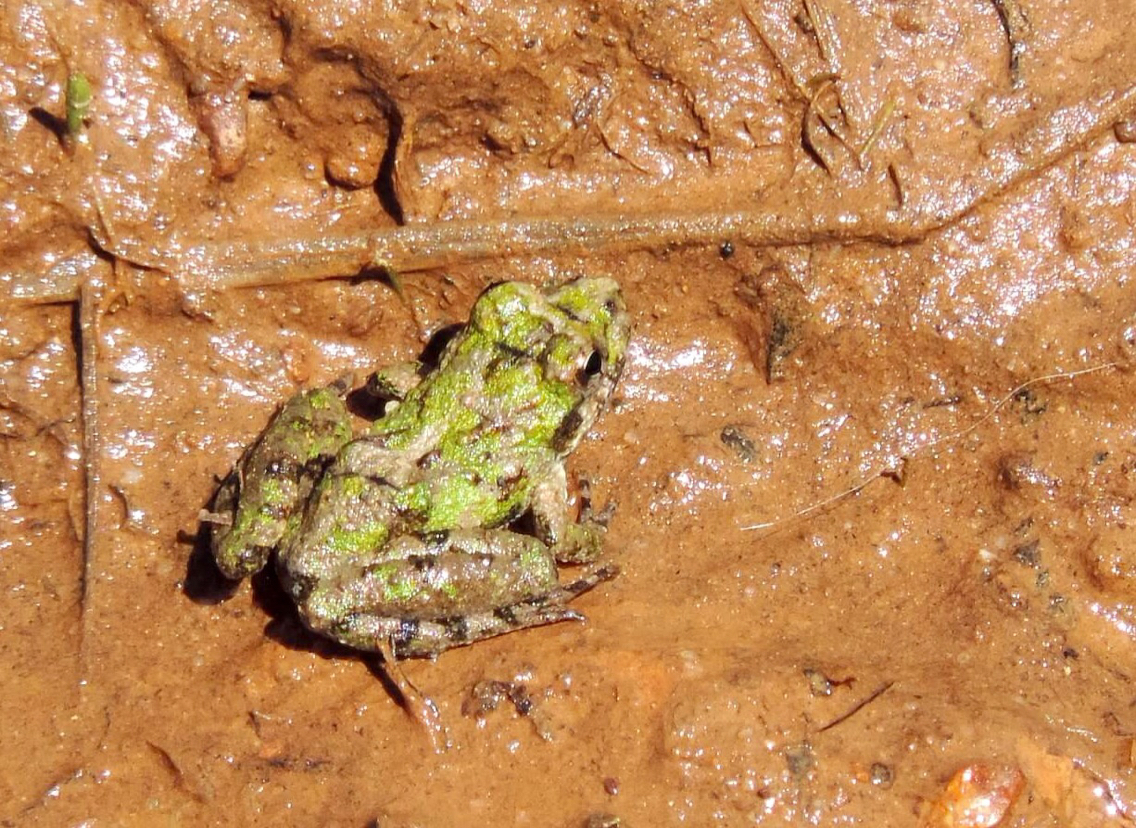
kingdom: Animalia
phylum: Chordata
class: Amphibia
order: Anura
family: Hylidae
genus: Acris
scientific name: Acris crepitans
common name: Northern cricket frog
